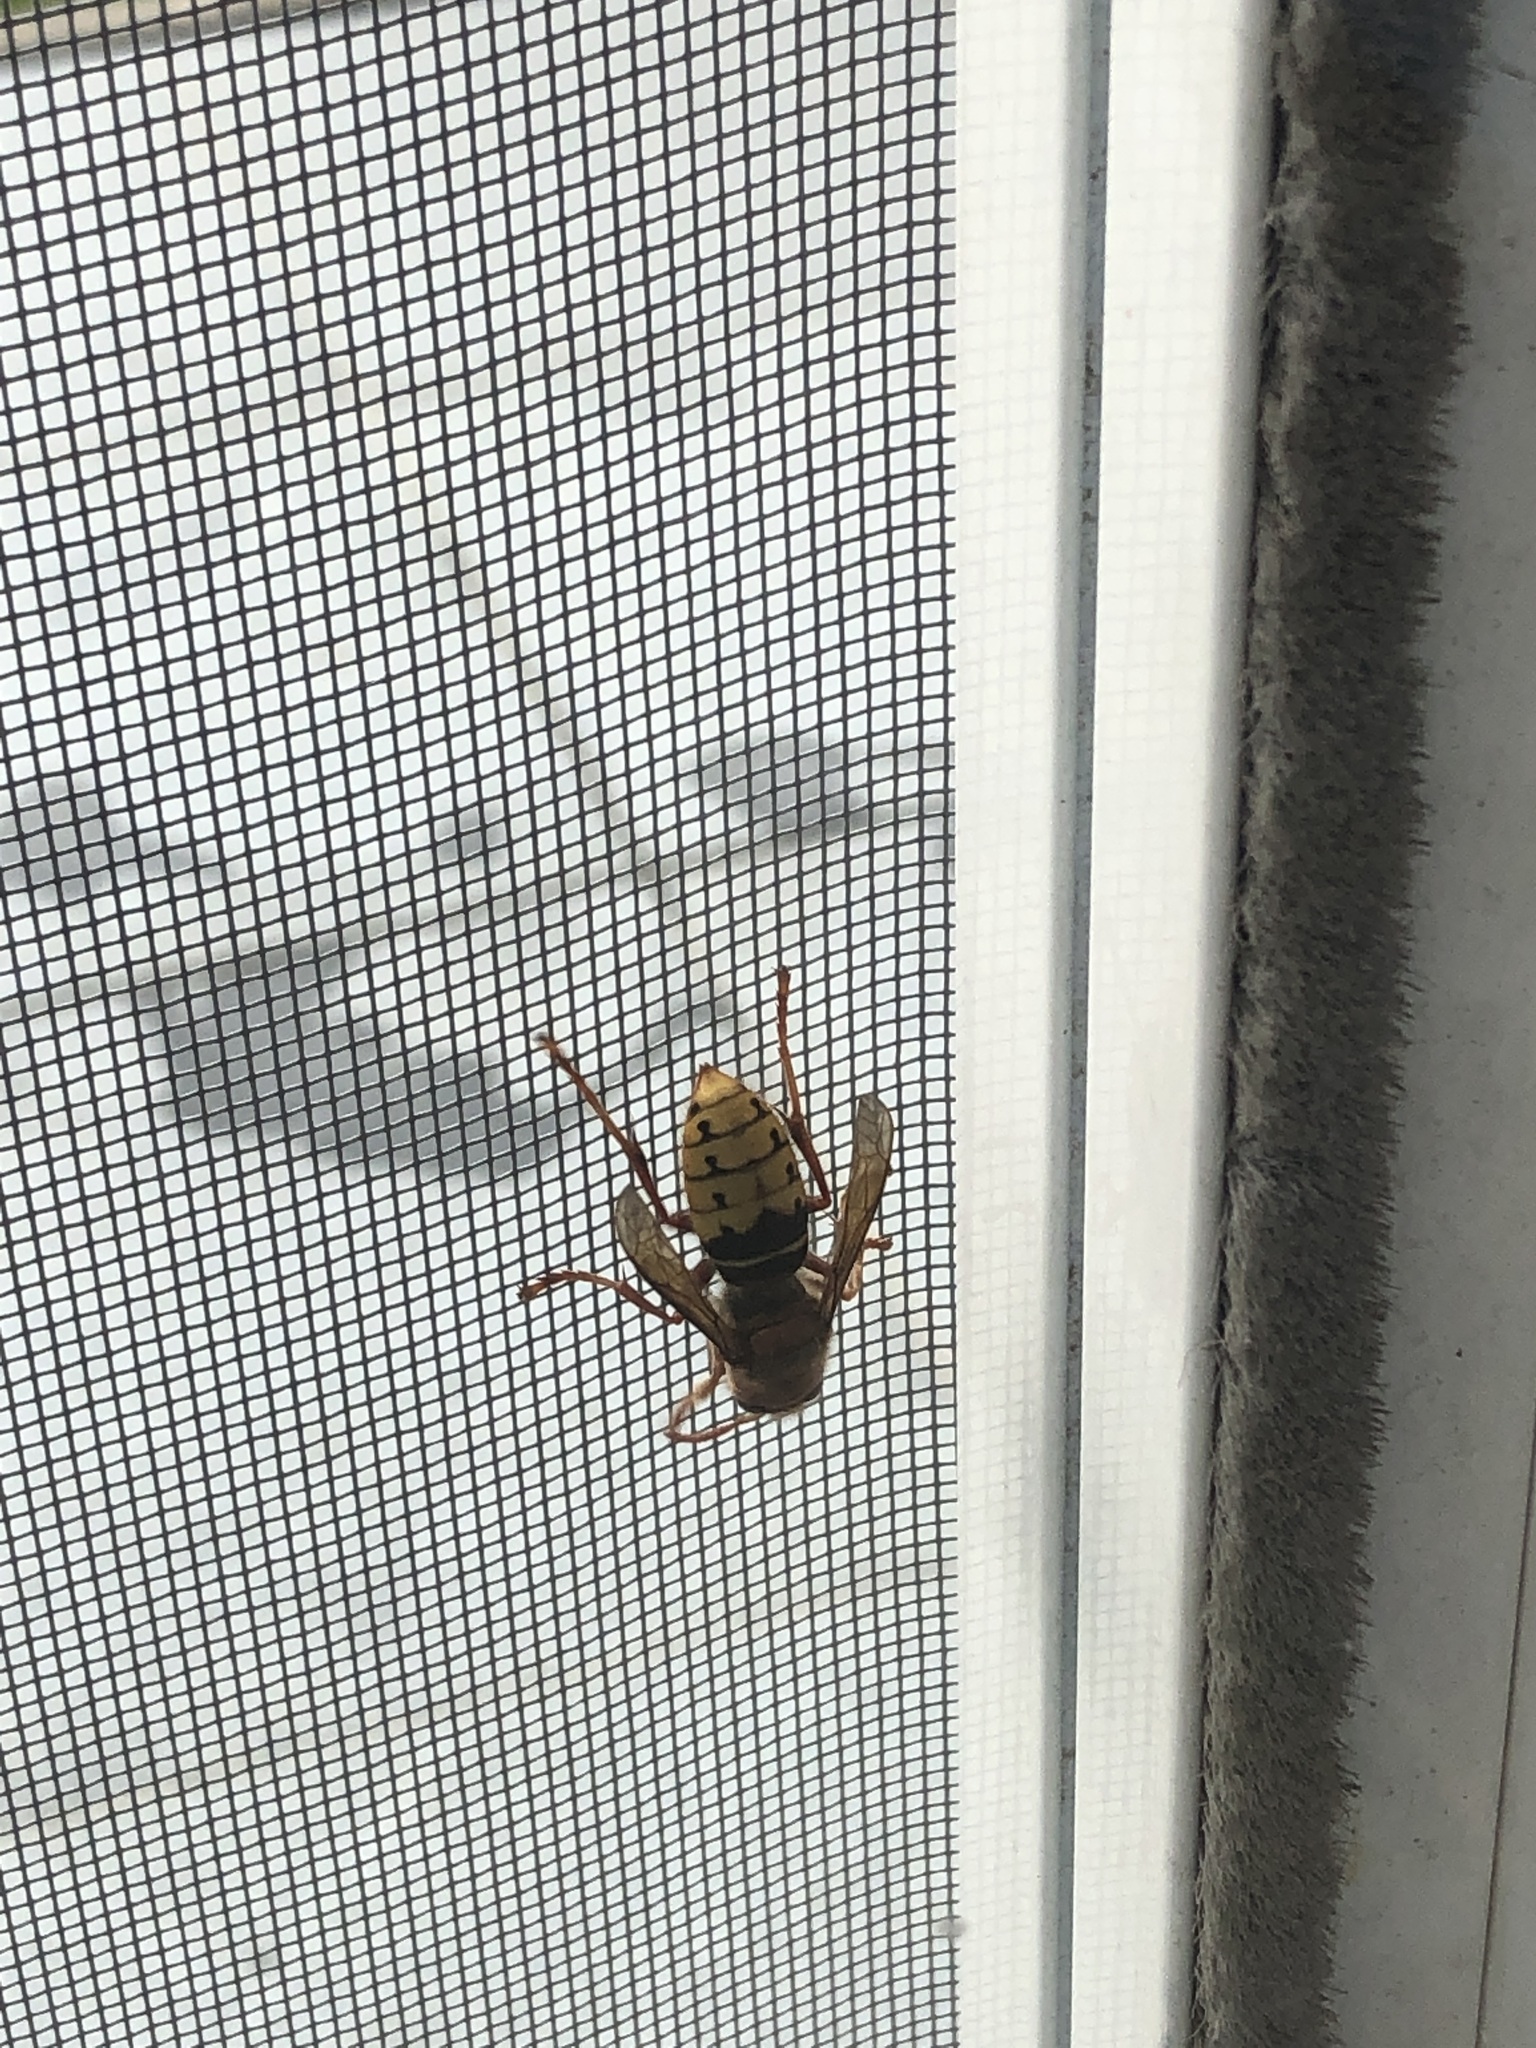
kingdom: Animalia
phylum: Arthropoda
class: Insecta
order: Hymenoptera
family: Vespidae
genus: Vespa
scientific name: Vespa crabro
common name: Hornet
